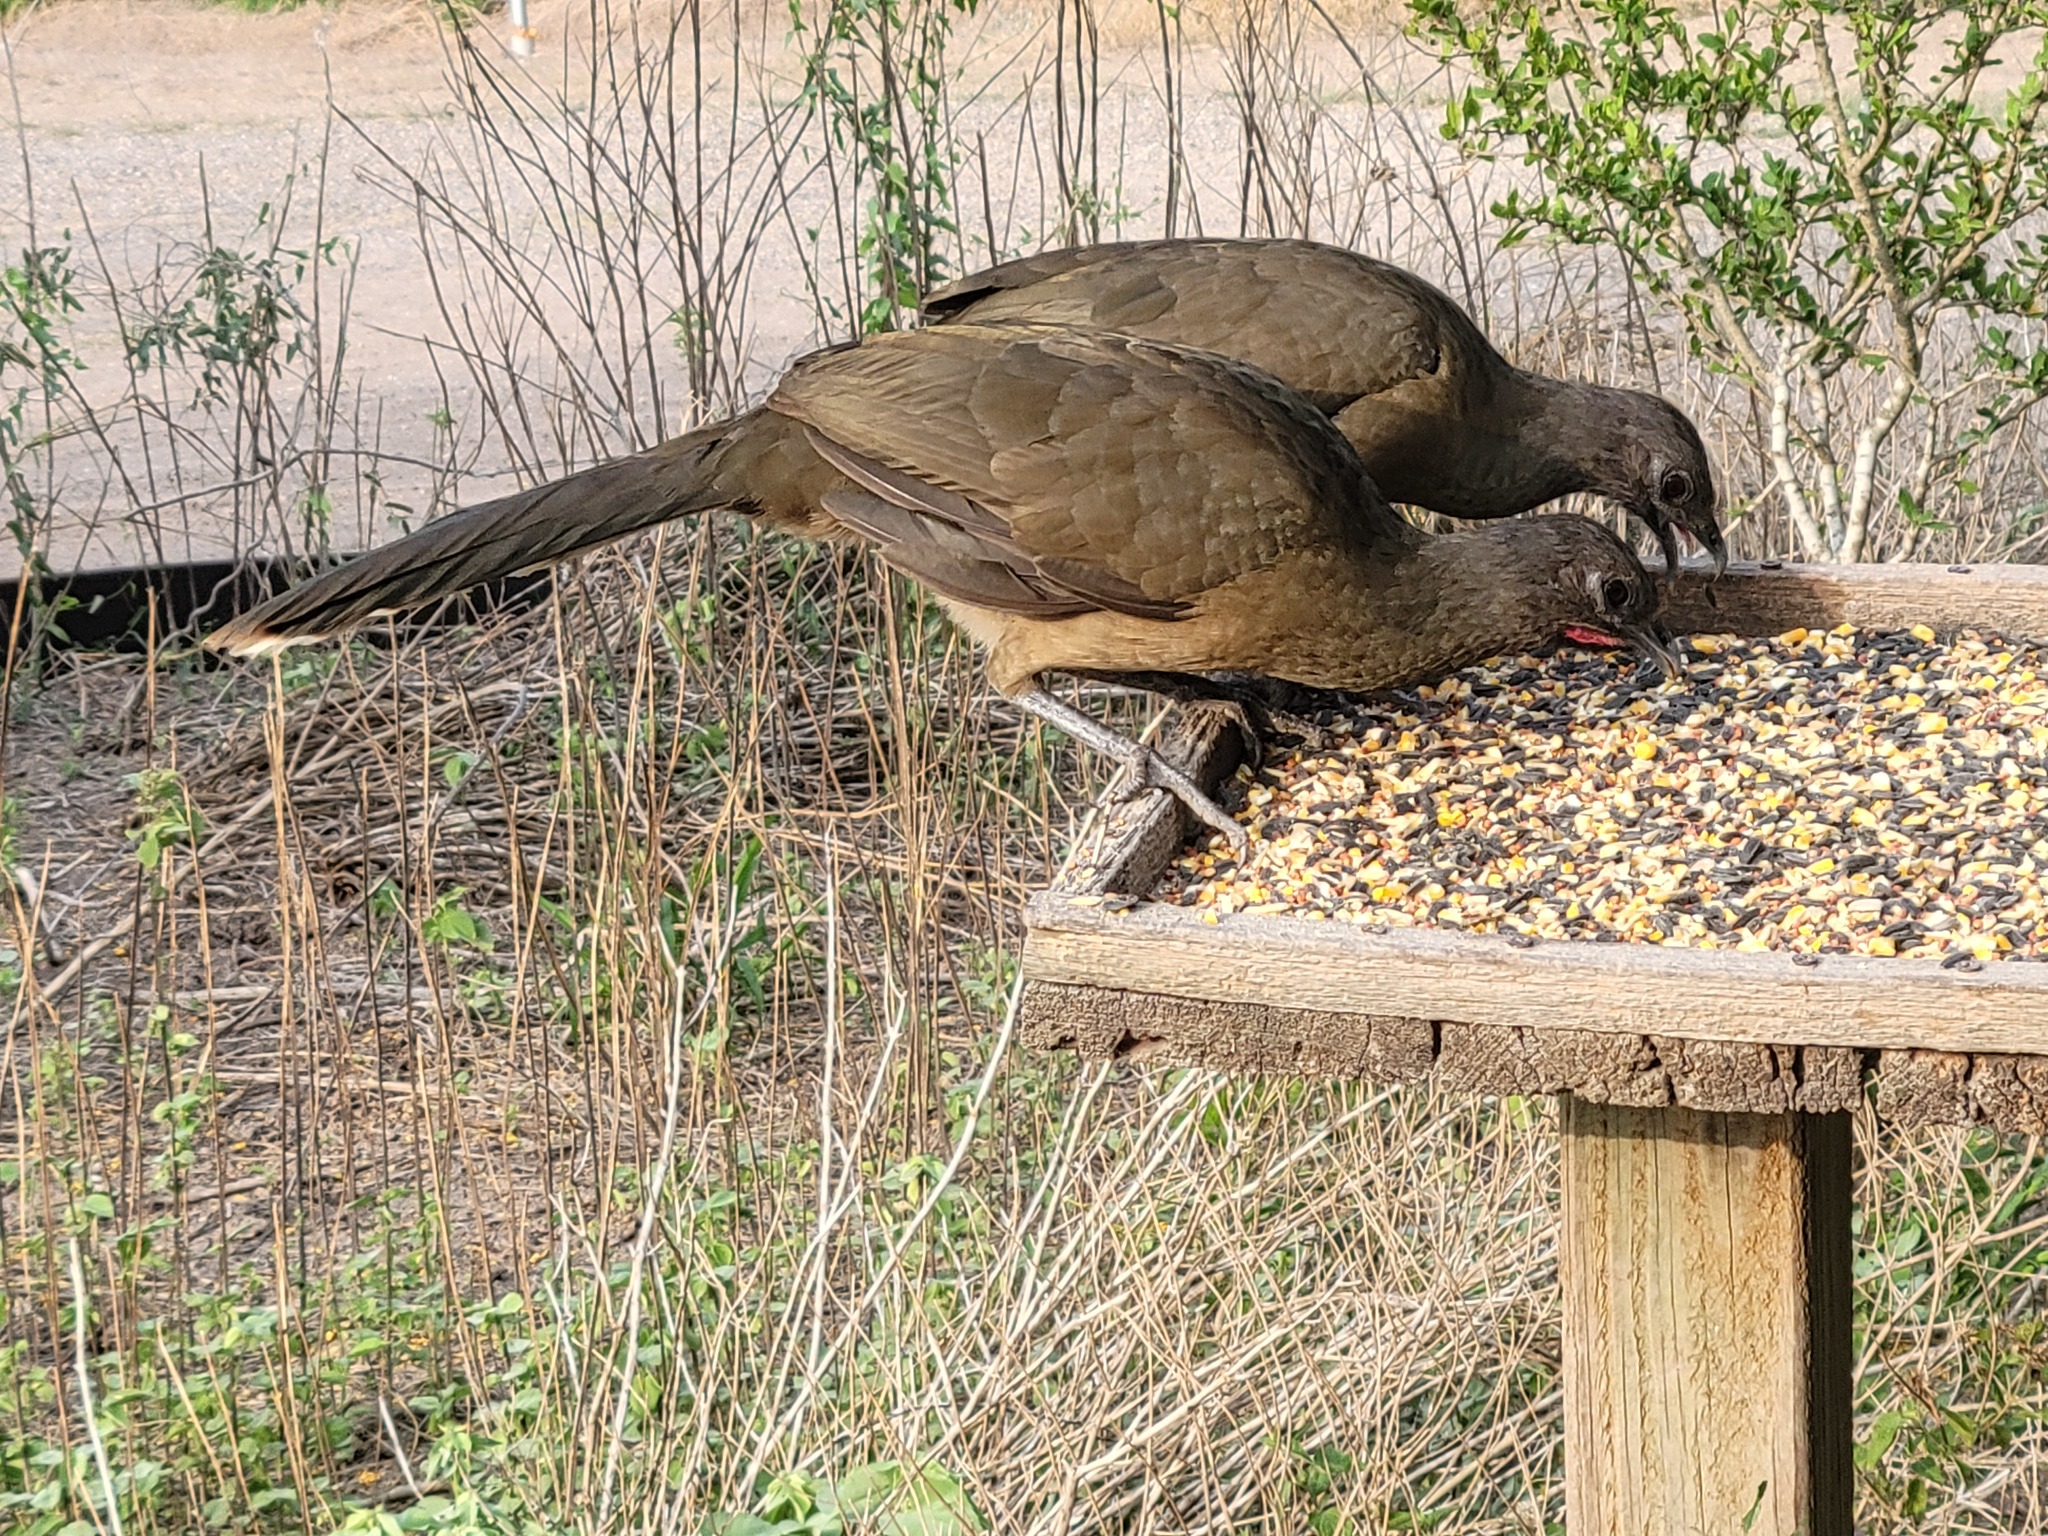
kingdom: Animalia
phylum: Chordata
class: Aves
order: Galliformes
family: Cracidae
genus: Ortalis
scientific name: Ortalis vetula
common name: Plain chachalaca
